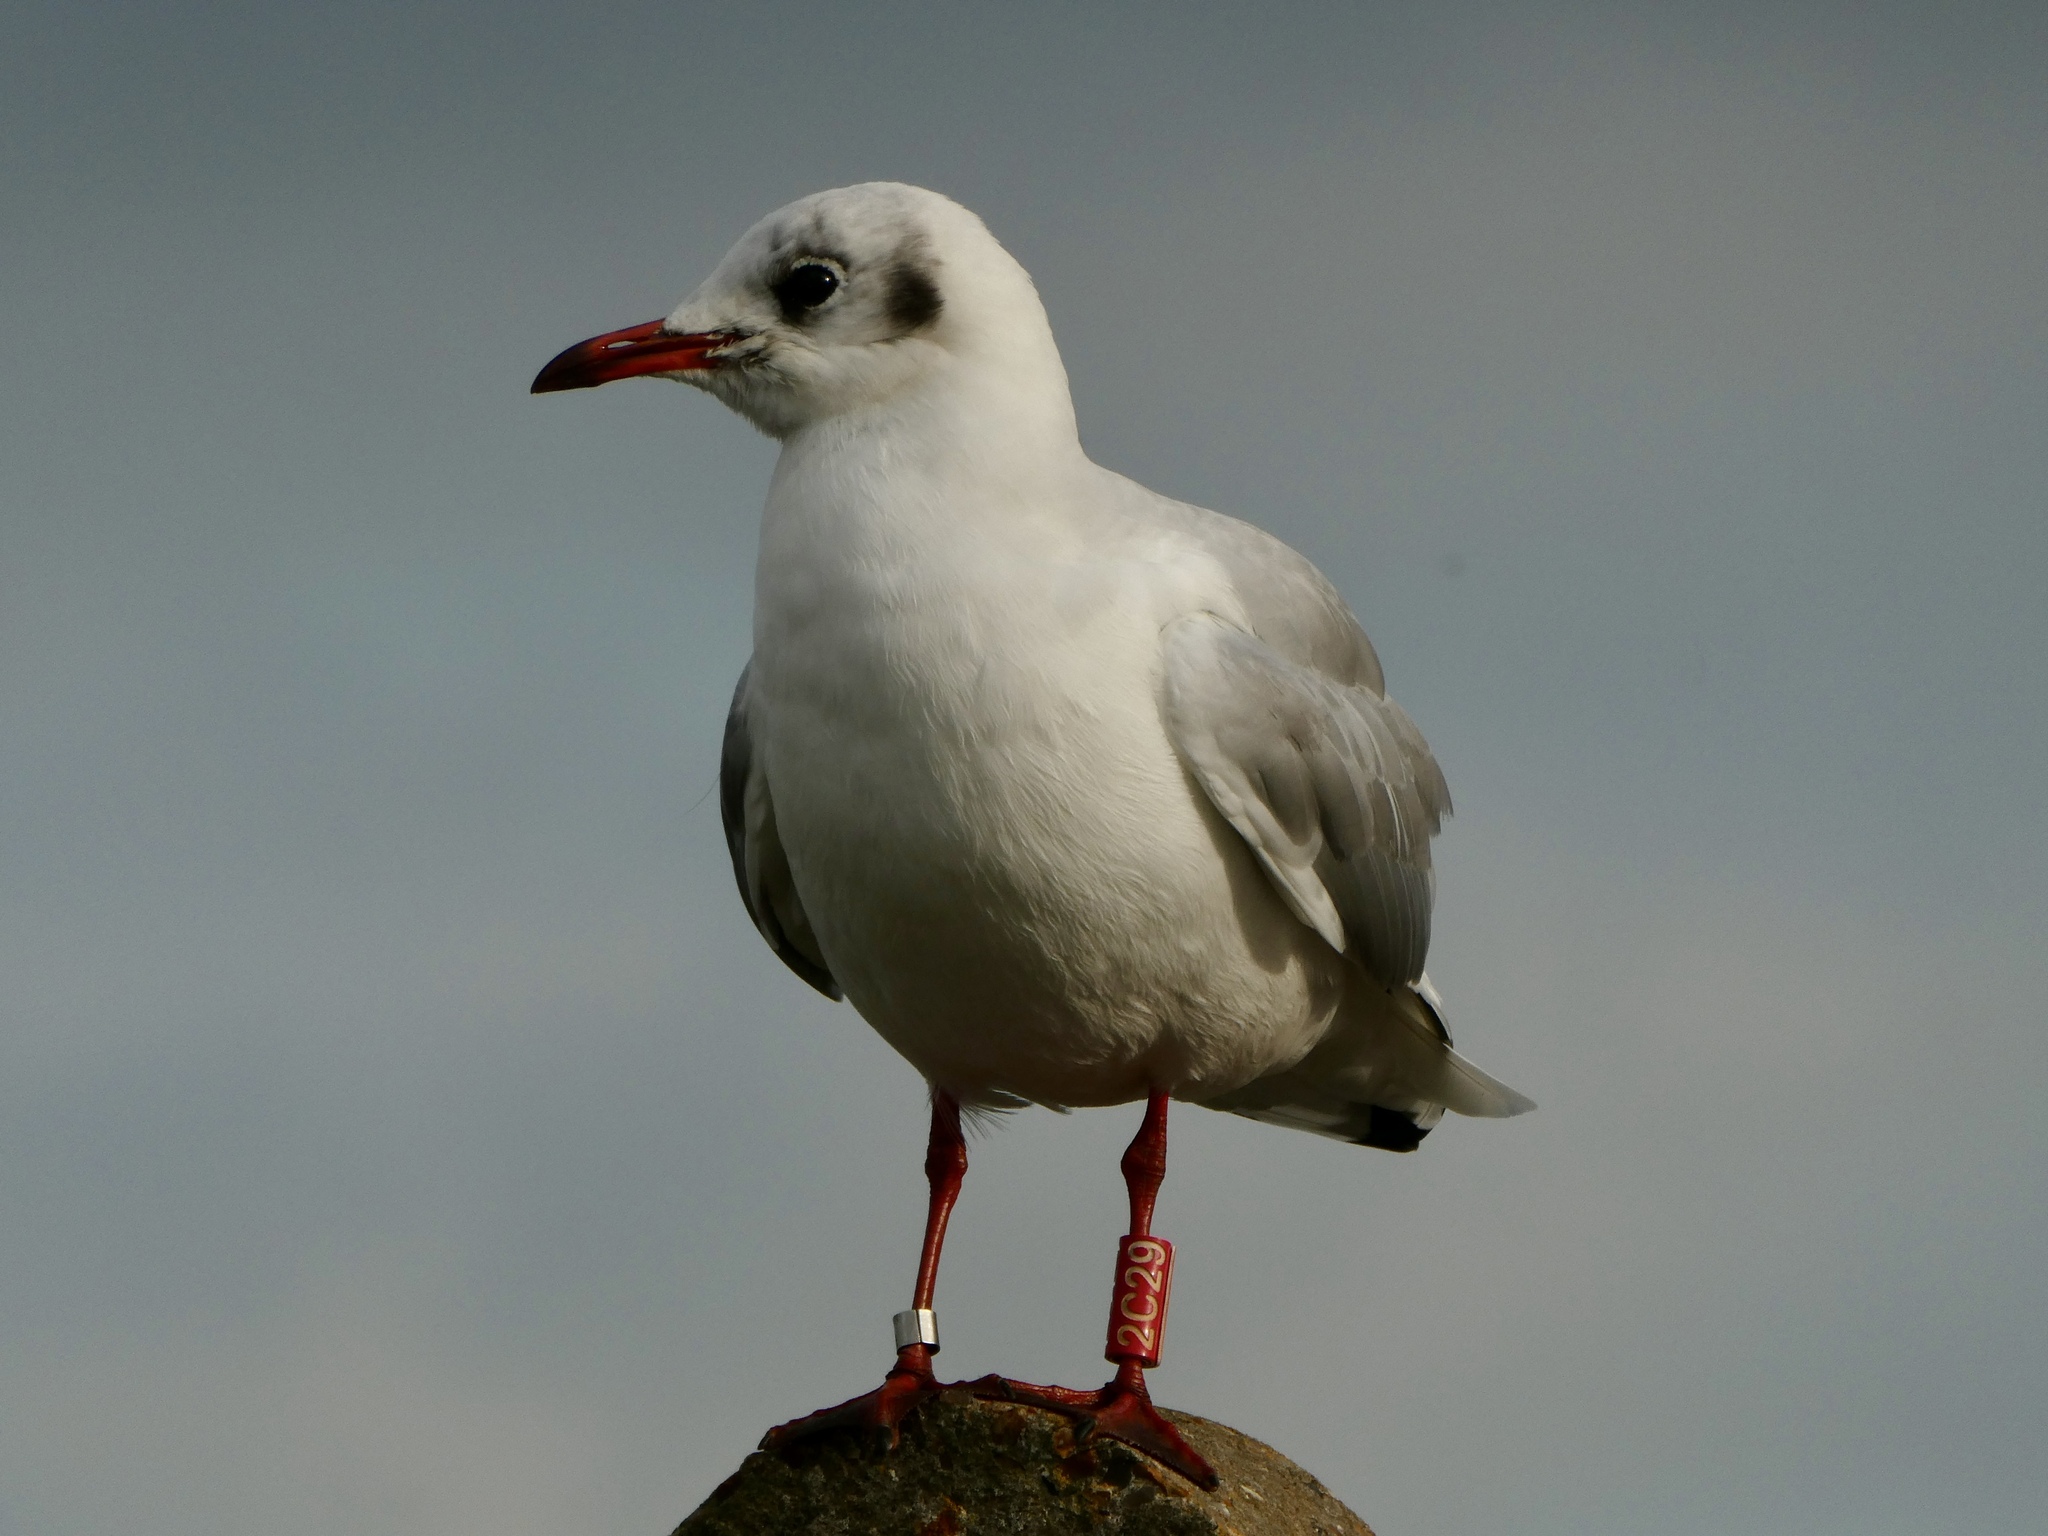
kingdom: Animalia
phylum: Chordata
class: Aves
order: Charadriiformes
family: Laridae
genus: Chroicocephalus
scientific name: Chroicocephalus ridibundus
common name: Black-headed gull
